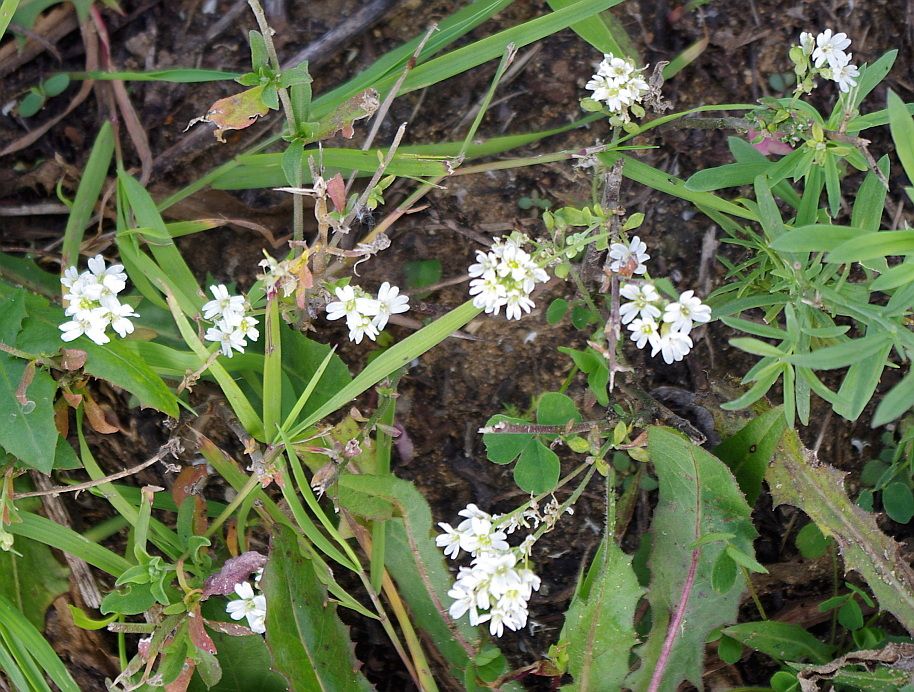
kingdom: Plantae
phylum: Tracheophyta
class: Magnoliopsida
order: Brassicales
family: Brassicaceae
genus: Berteroa
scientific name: Berteroa incana
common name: Hoary alison
